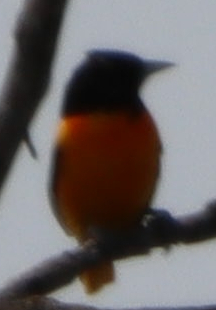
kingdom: Animalia
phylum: Chordata
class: Aves
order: Passeriformes
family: Icteridae
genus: Icterus
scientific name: Icterus galbula
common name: Baltimore oriole
